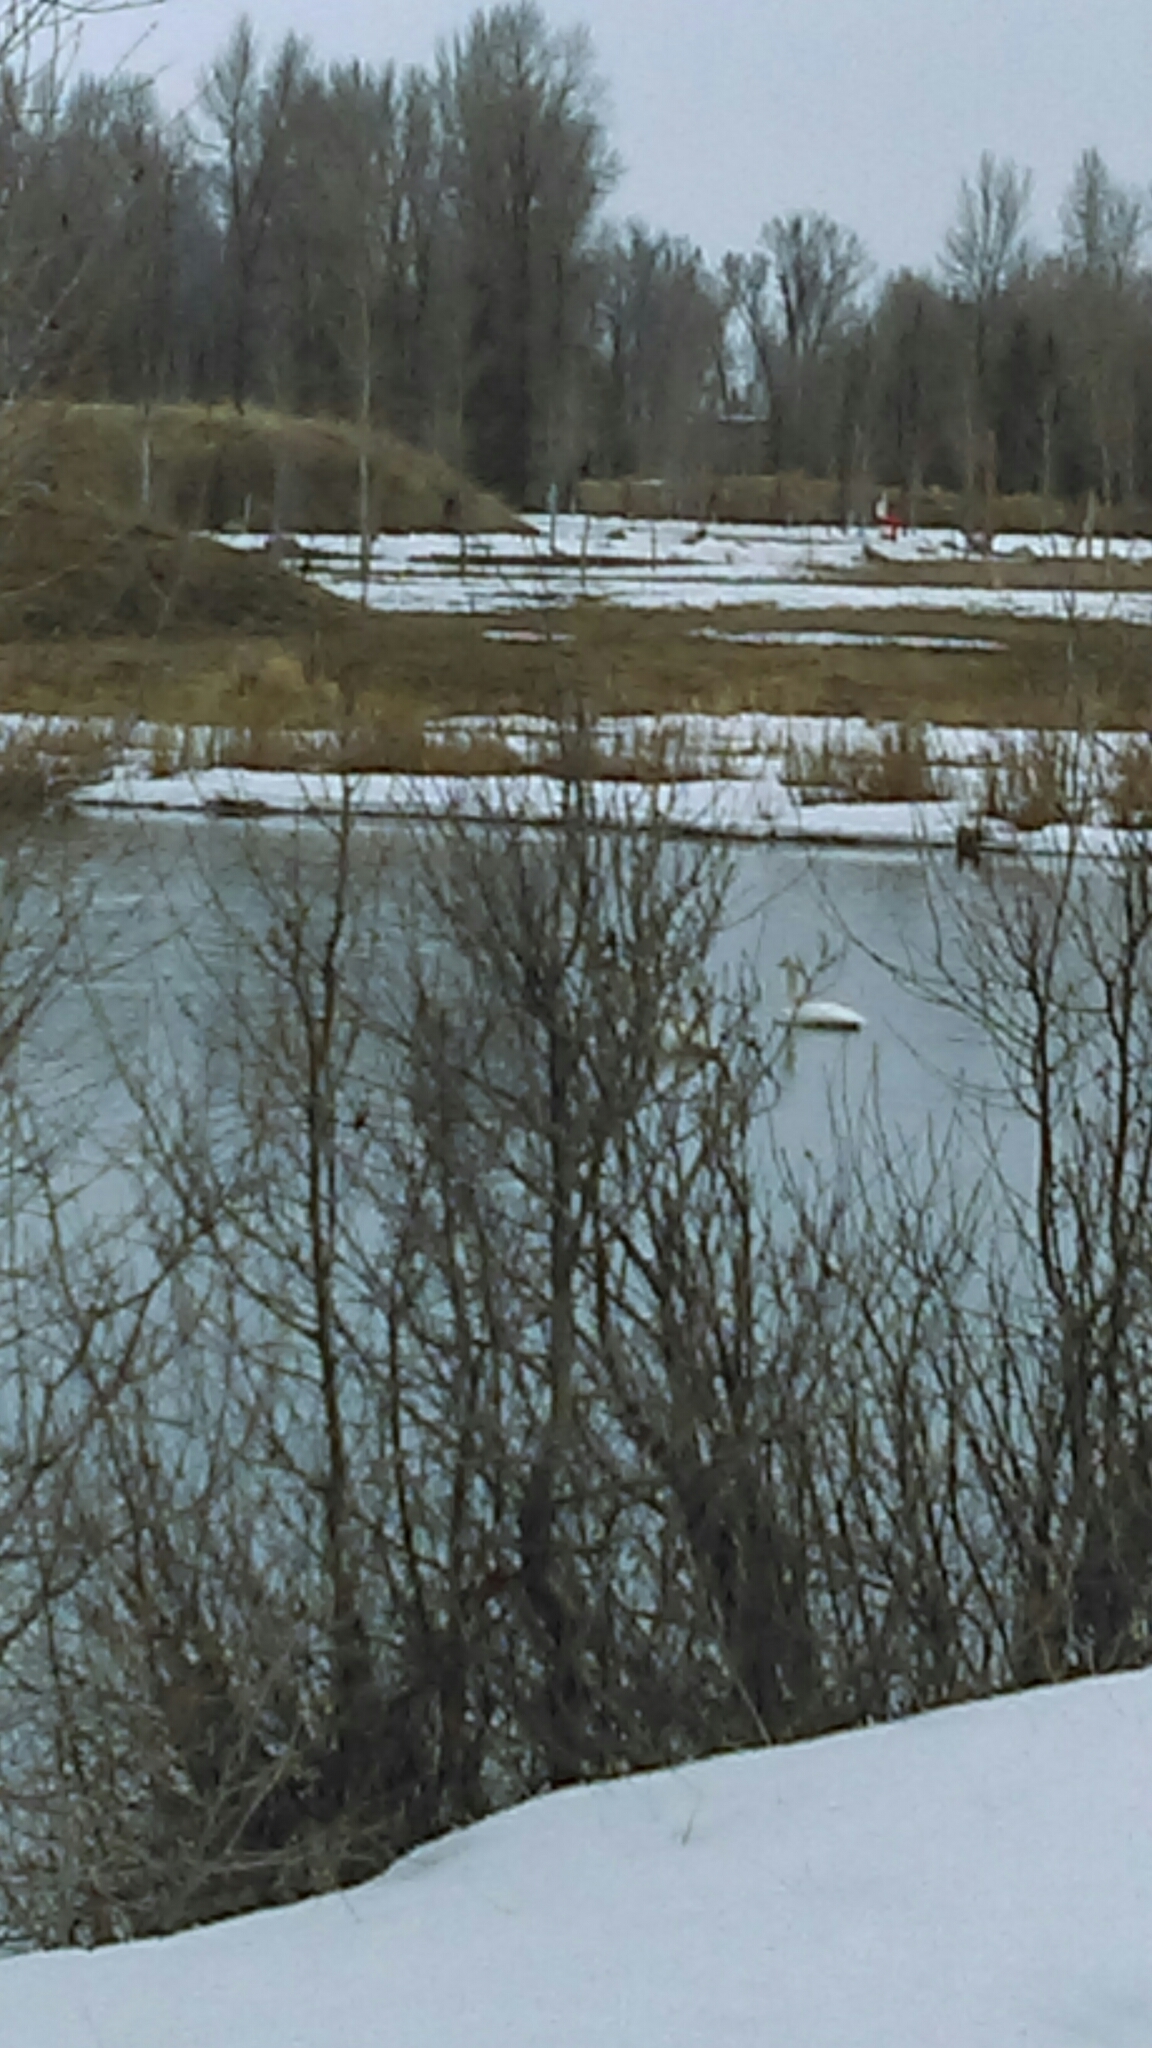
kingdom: Animalia
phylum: Chordata
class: Aves
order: Anseriformes
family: Anatidae
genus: Cygnus
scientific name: Cygnus buccinator
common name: Trumpeter swan
